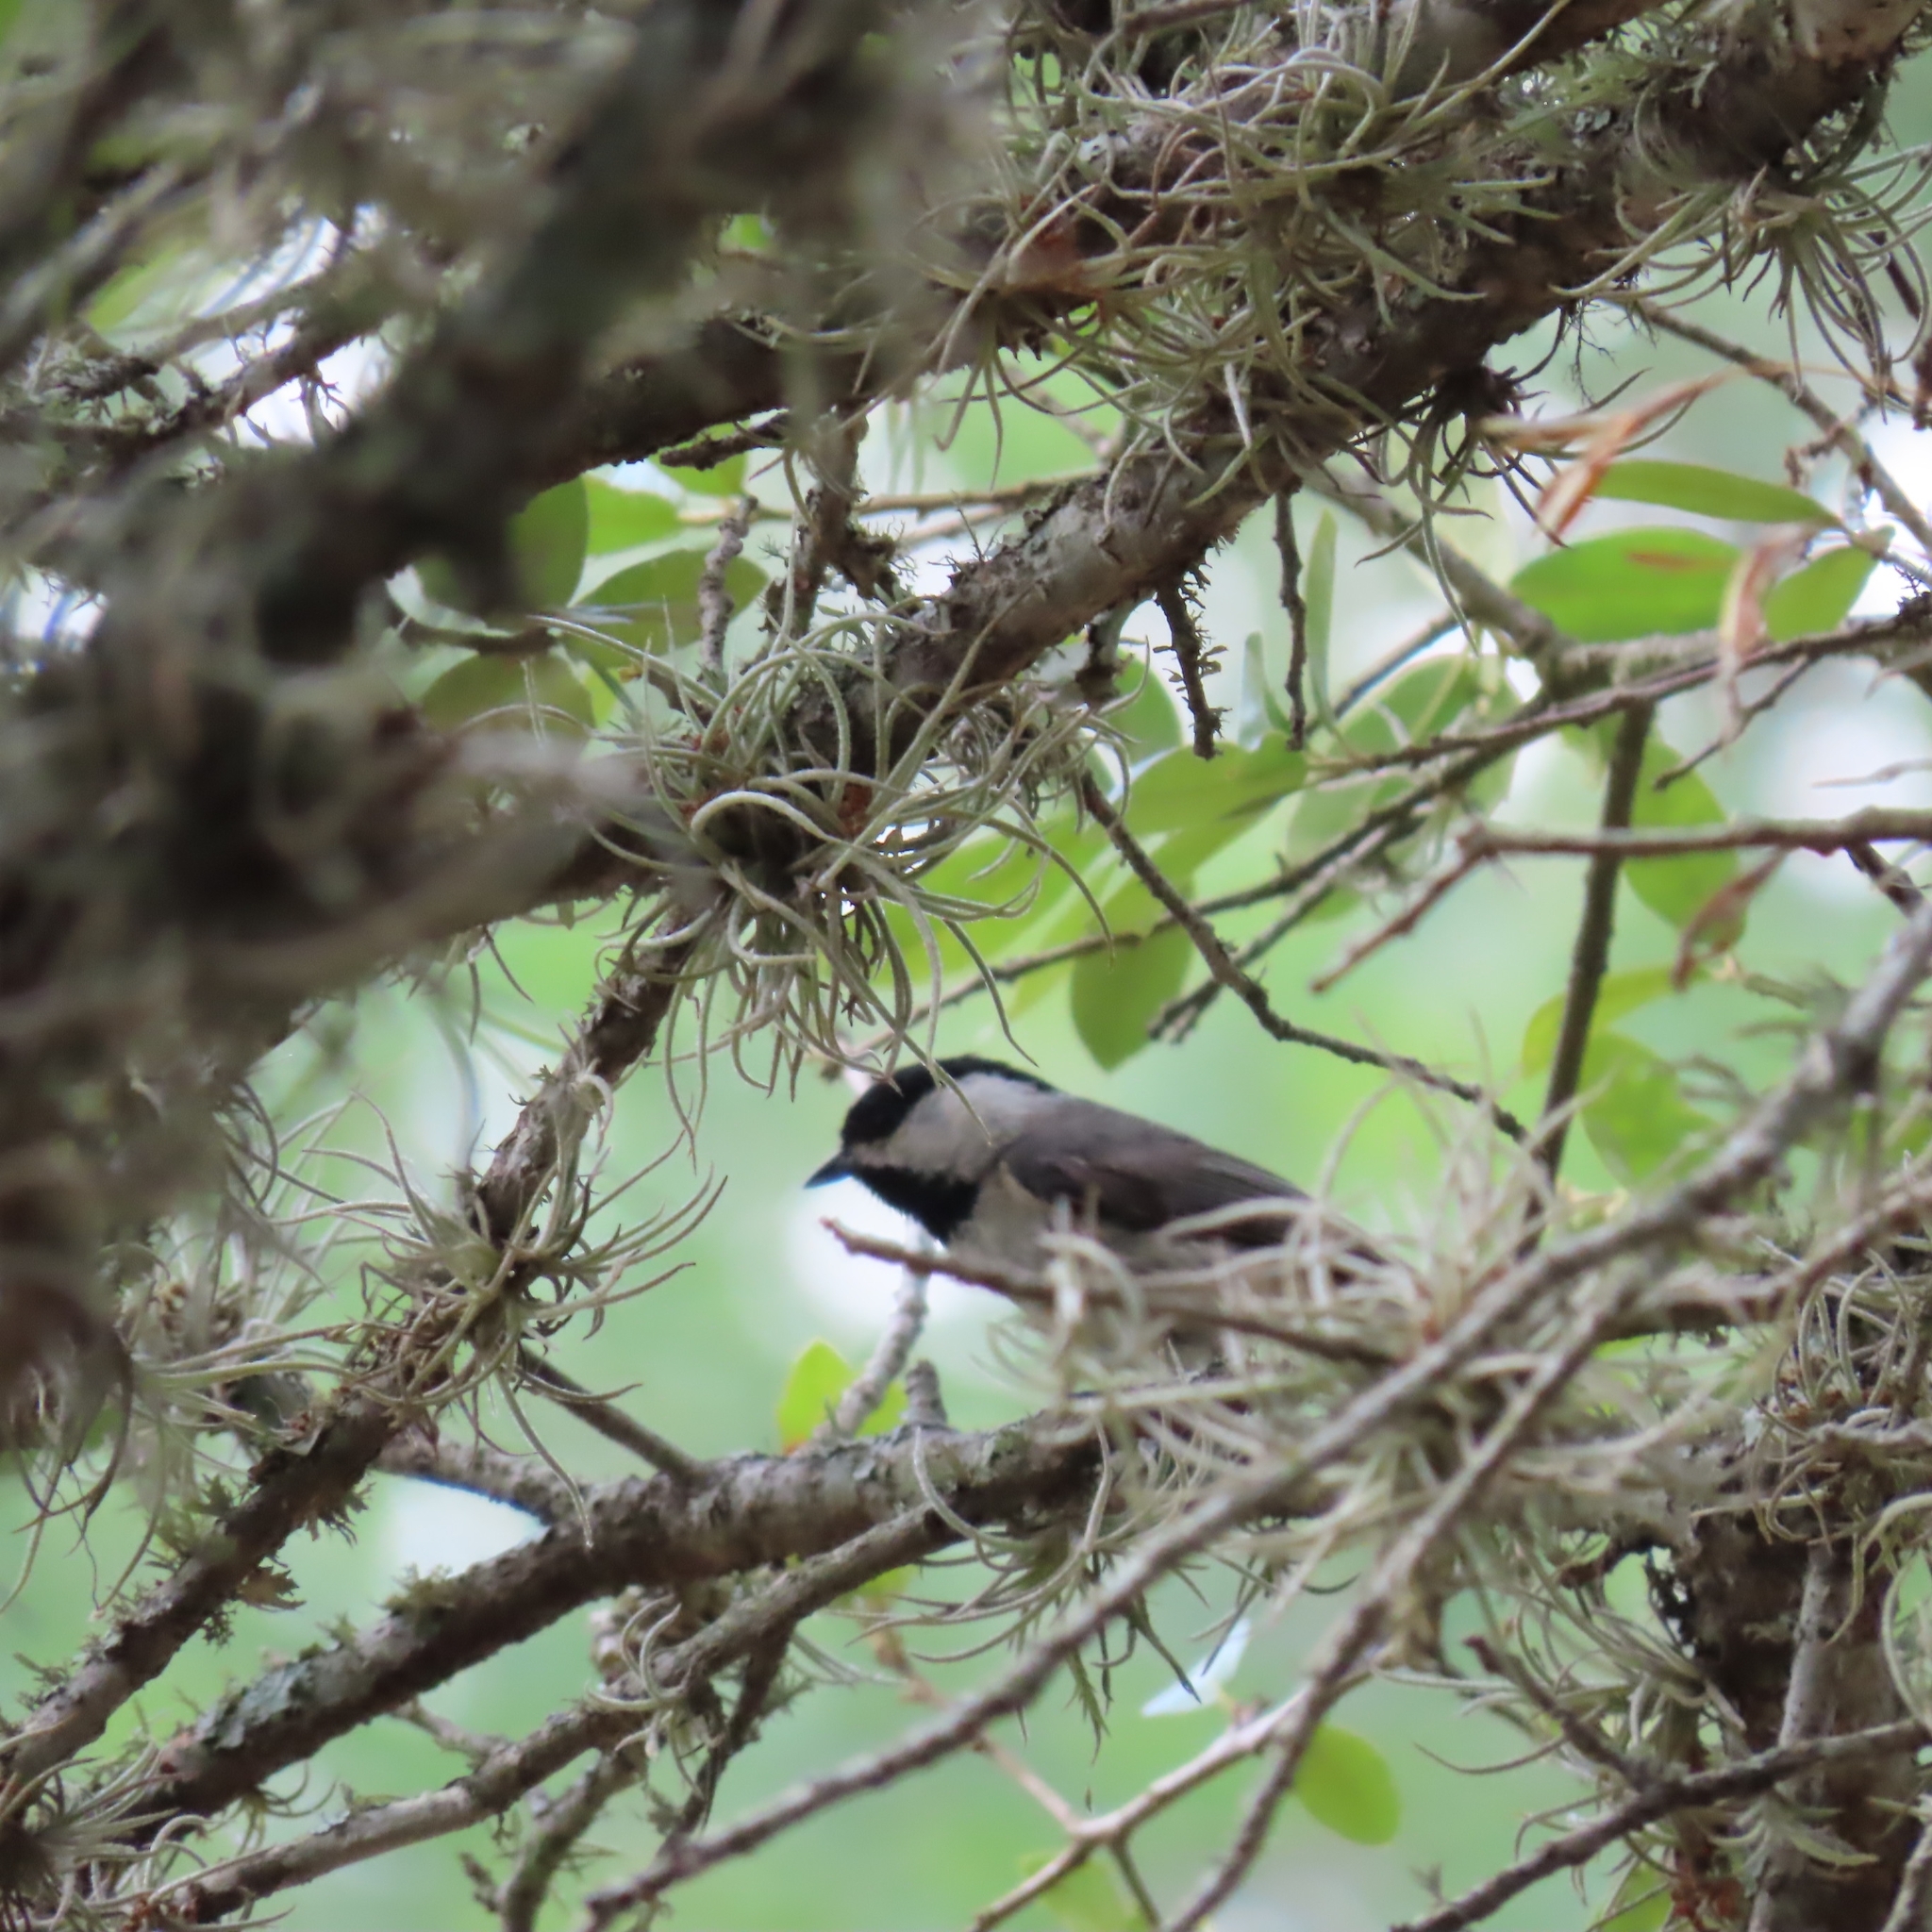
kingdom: Animalia
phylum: Chordata
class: Aves
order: Passeriformes
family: Paridae
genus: Poecile
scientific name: Poecile carolinensis
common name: Carolina chickadee
